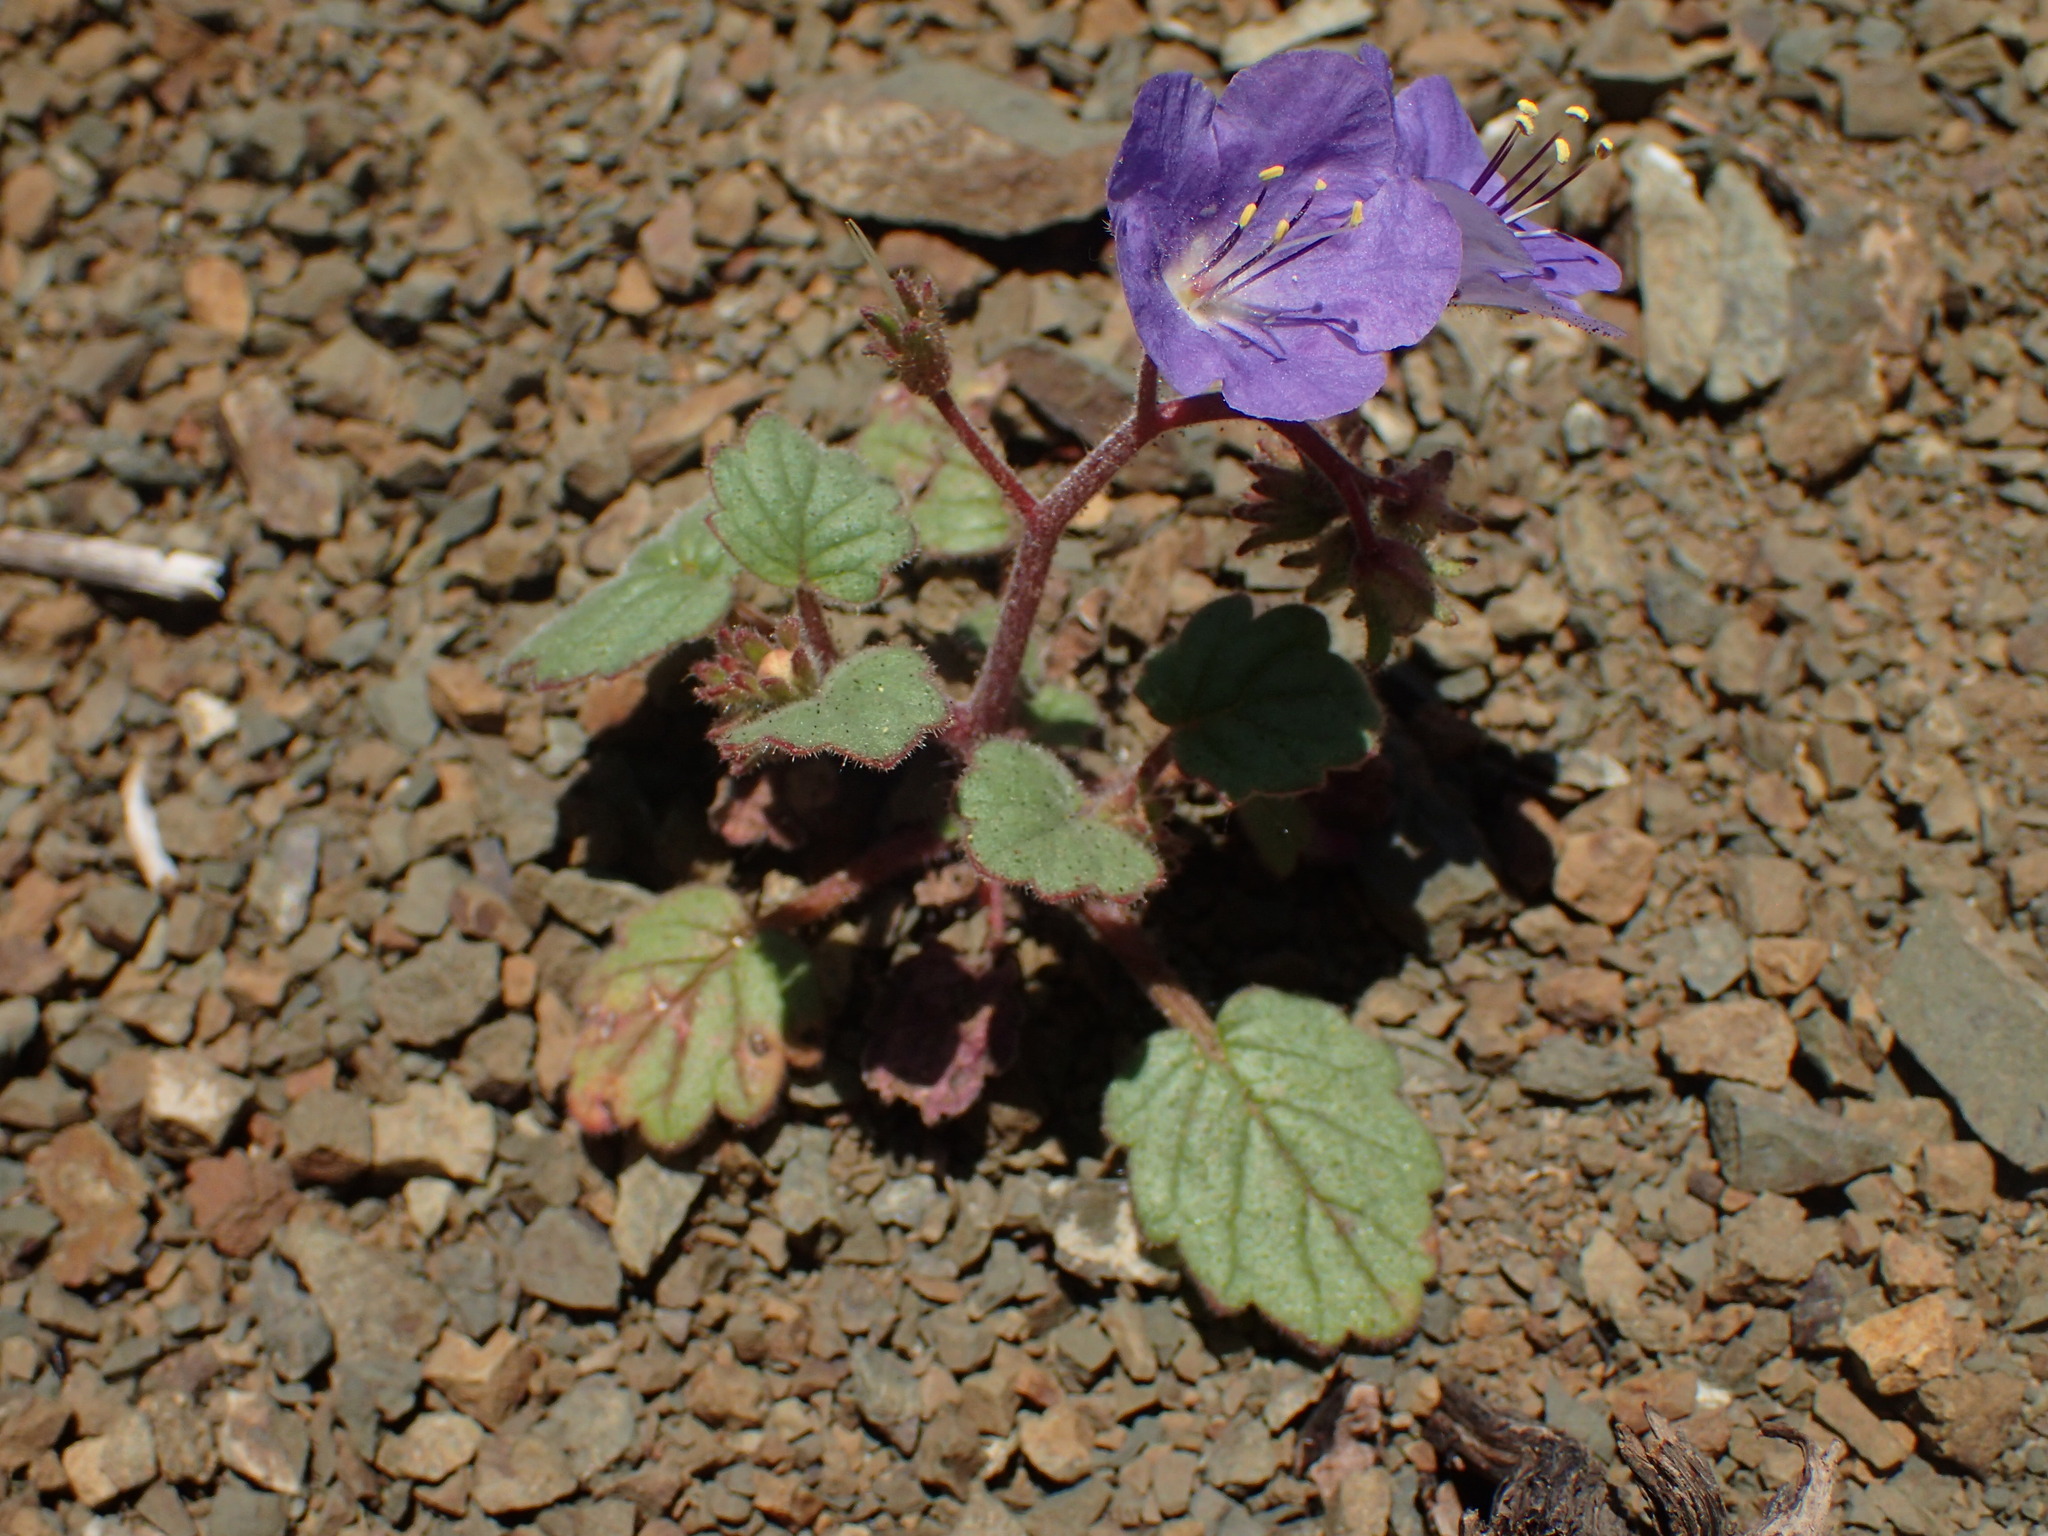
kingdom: Plantae
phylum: Tracheophyta
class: Magnoliopsida
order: Boraginales
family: Hydrophyllaceae
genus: Phacelia
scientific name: Phacelia longipes
